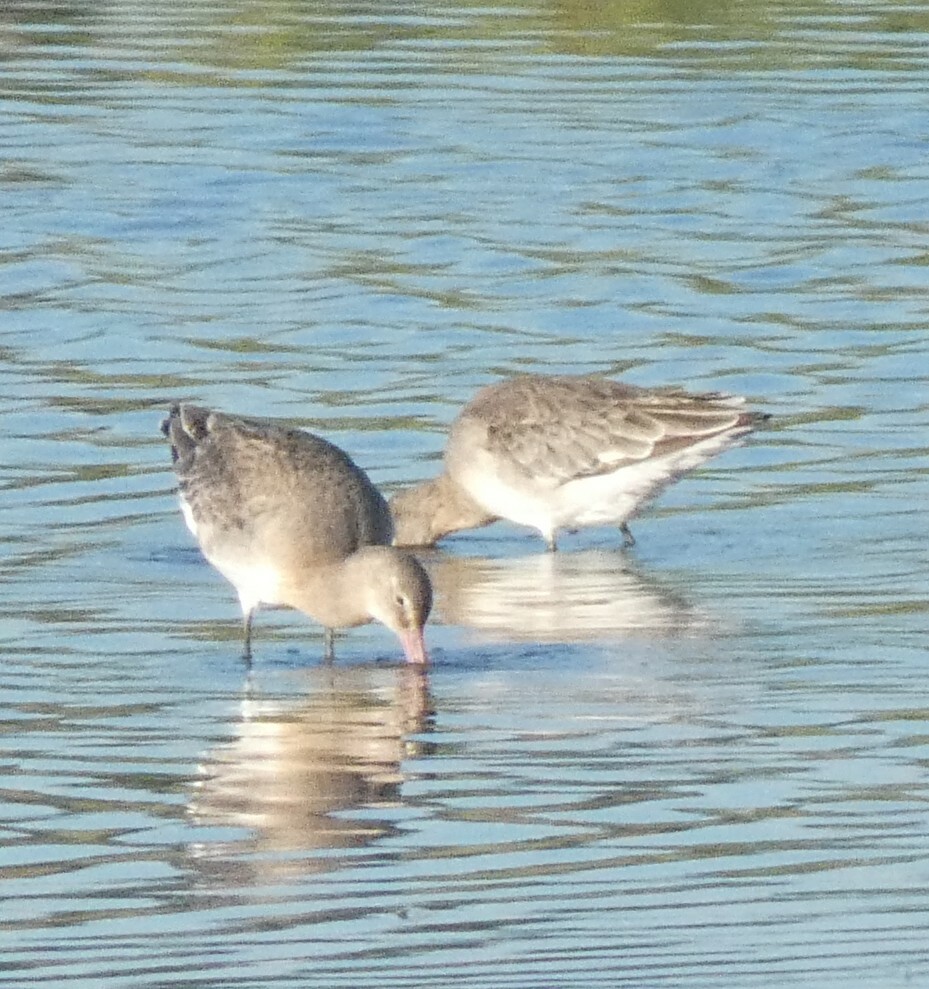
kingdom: Animalia
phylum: Chordata
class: Aves
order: Charadriiformes
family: Scolopacidae
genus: Limosa
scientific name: Limosa limosa
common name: Black-tailed godwit
